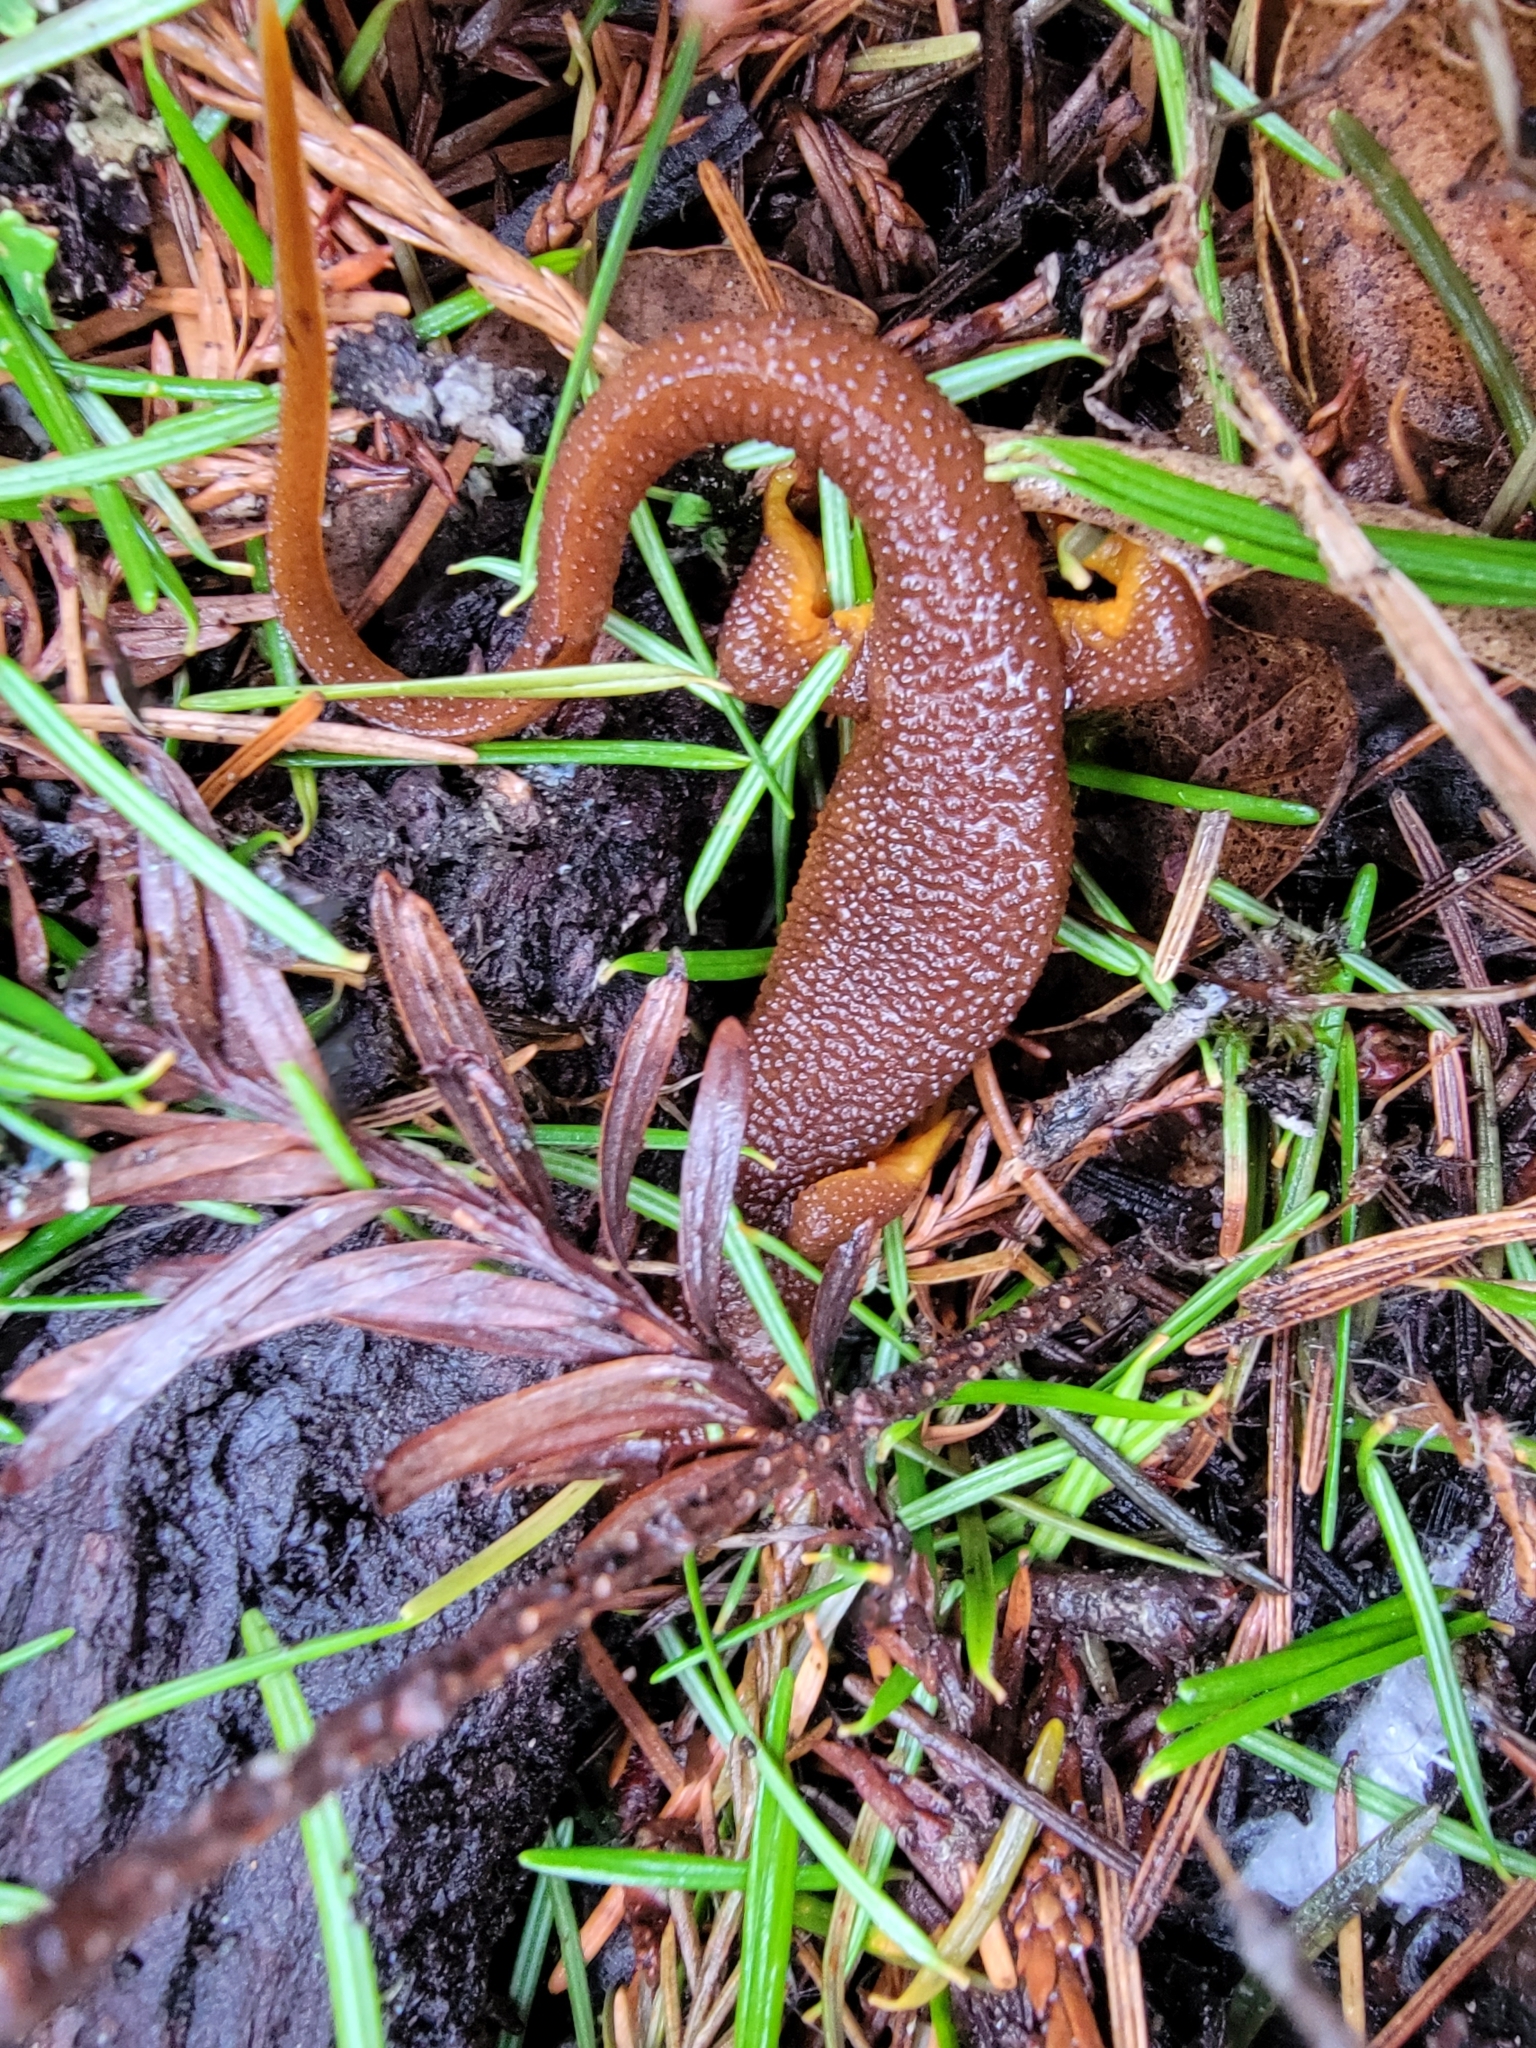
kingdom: Animalia
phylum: Chordata
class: Amphibia
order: Caudata
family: Salamandridae
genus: Taricha
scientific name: Taricha torosa
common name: California newt
